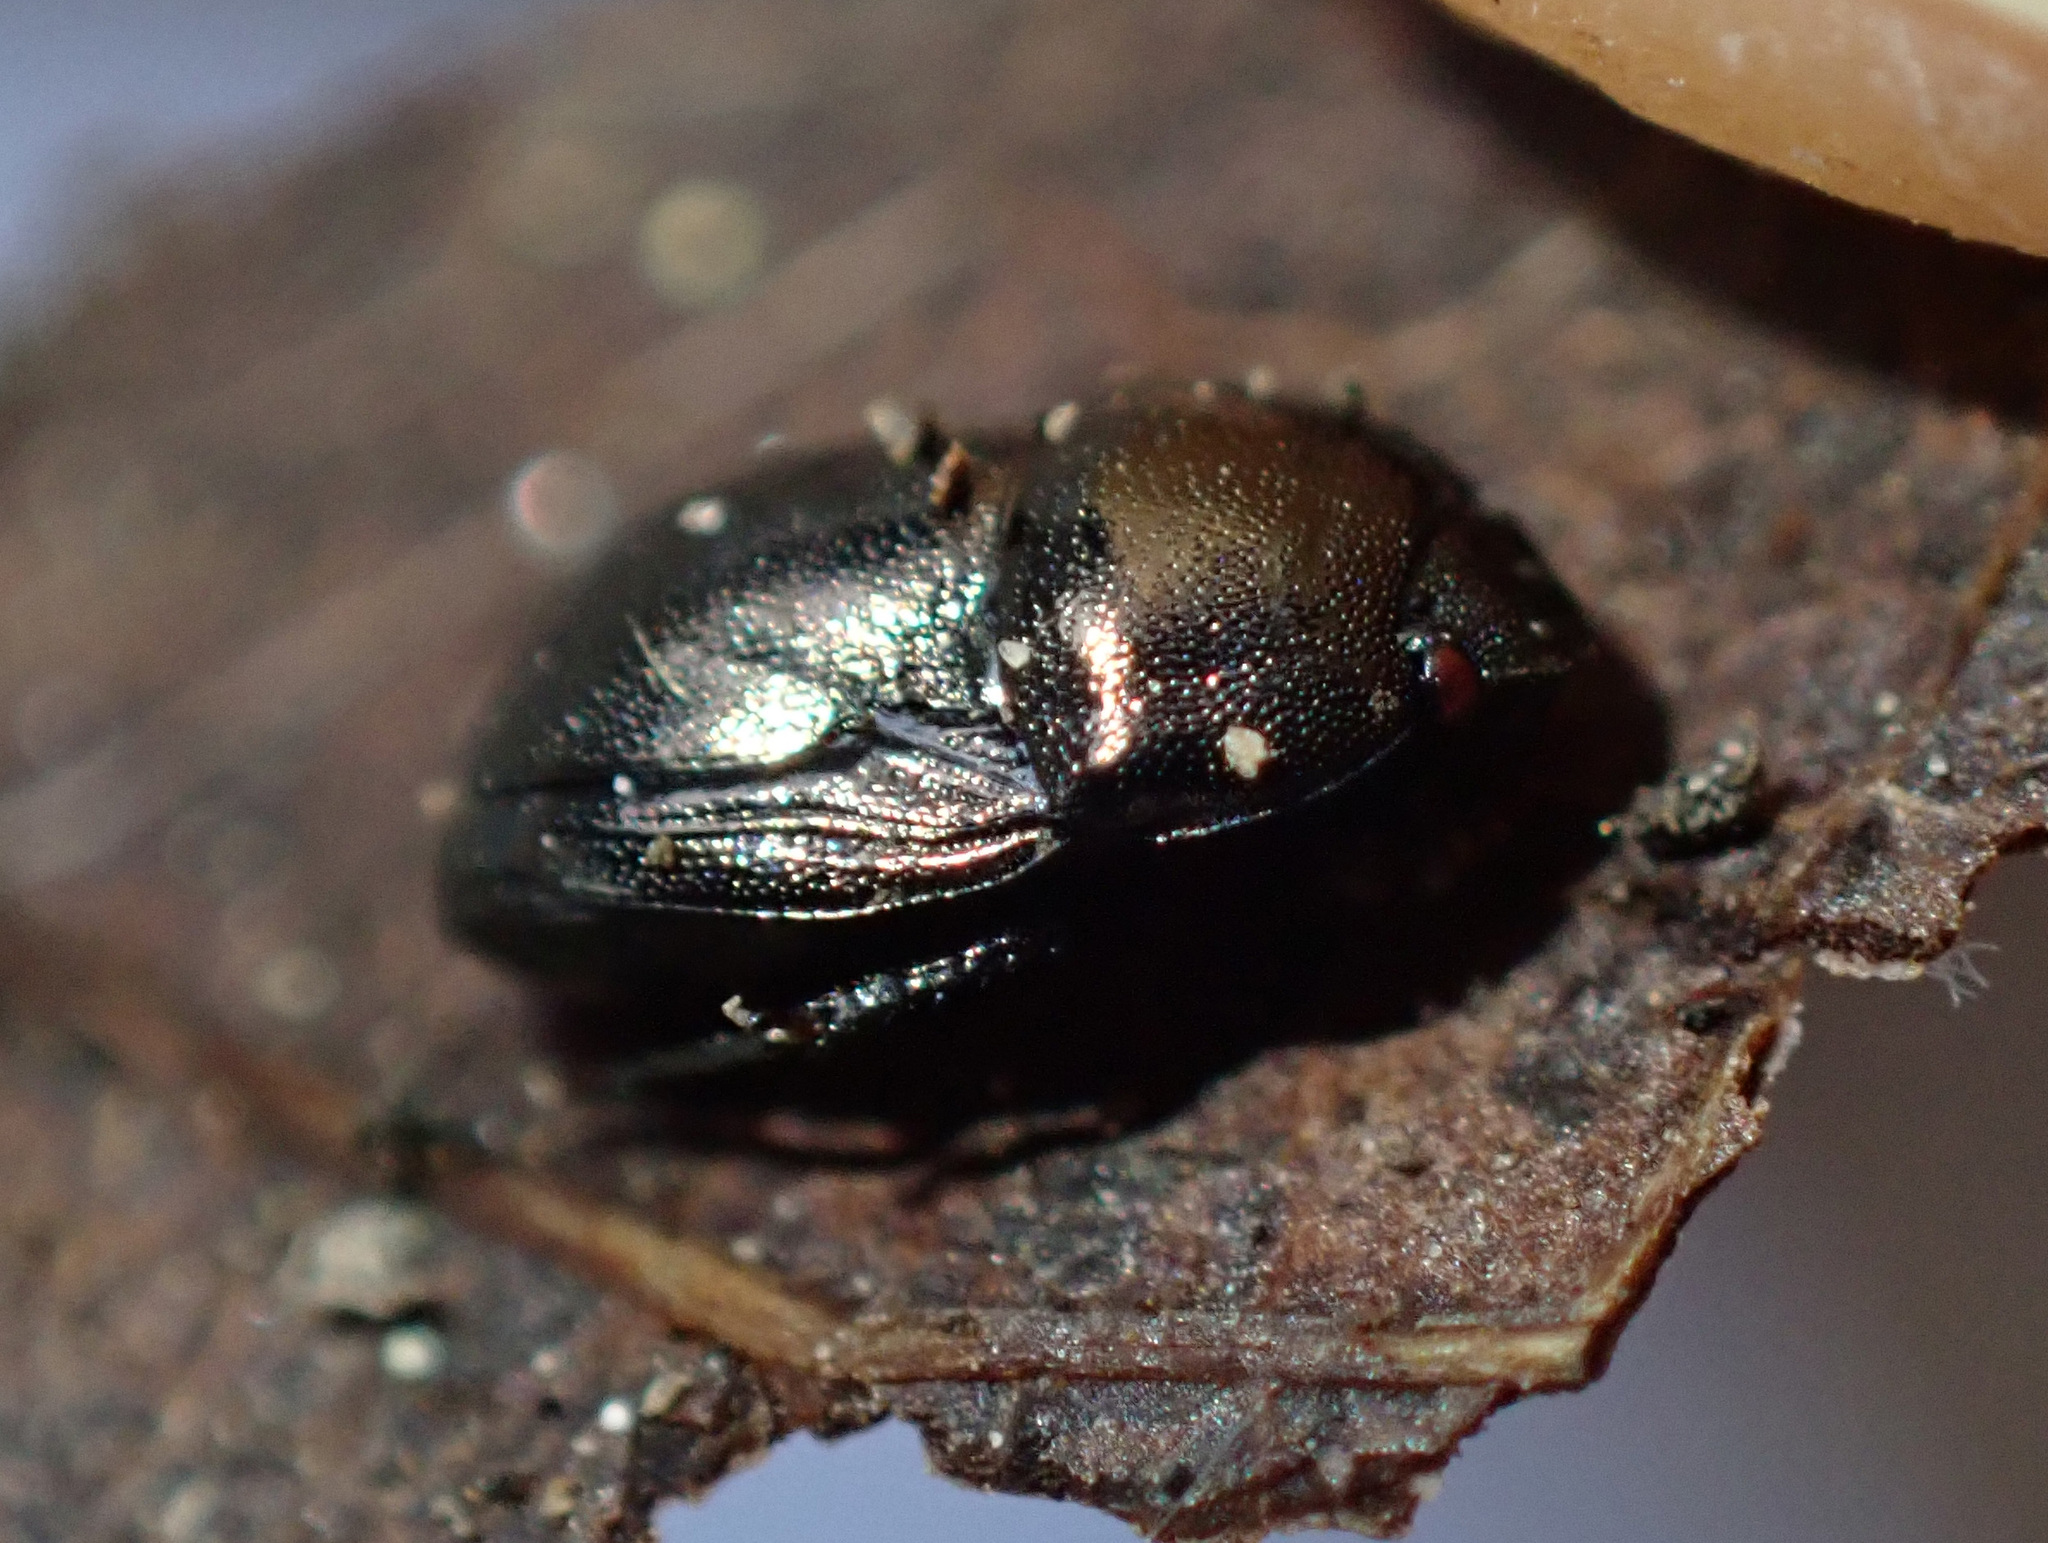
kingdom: Animalia
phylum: Arthropoda
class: Insecta
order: Hemiptera
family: Thyreocoridae
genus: Thyreocoris
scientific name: Thyreocoris scarabaeoides
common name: Negro bug
